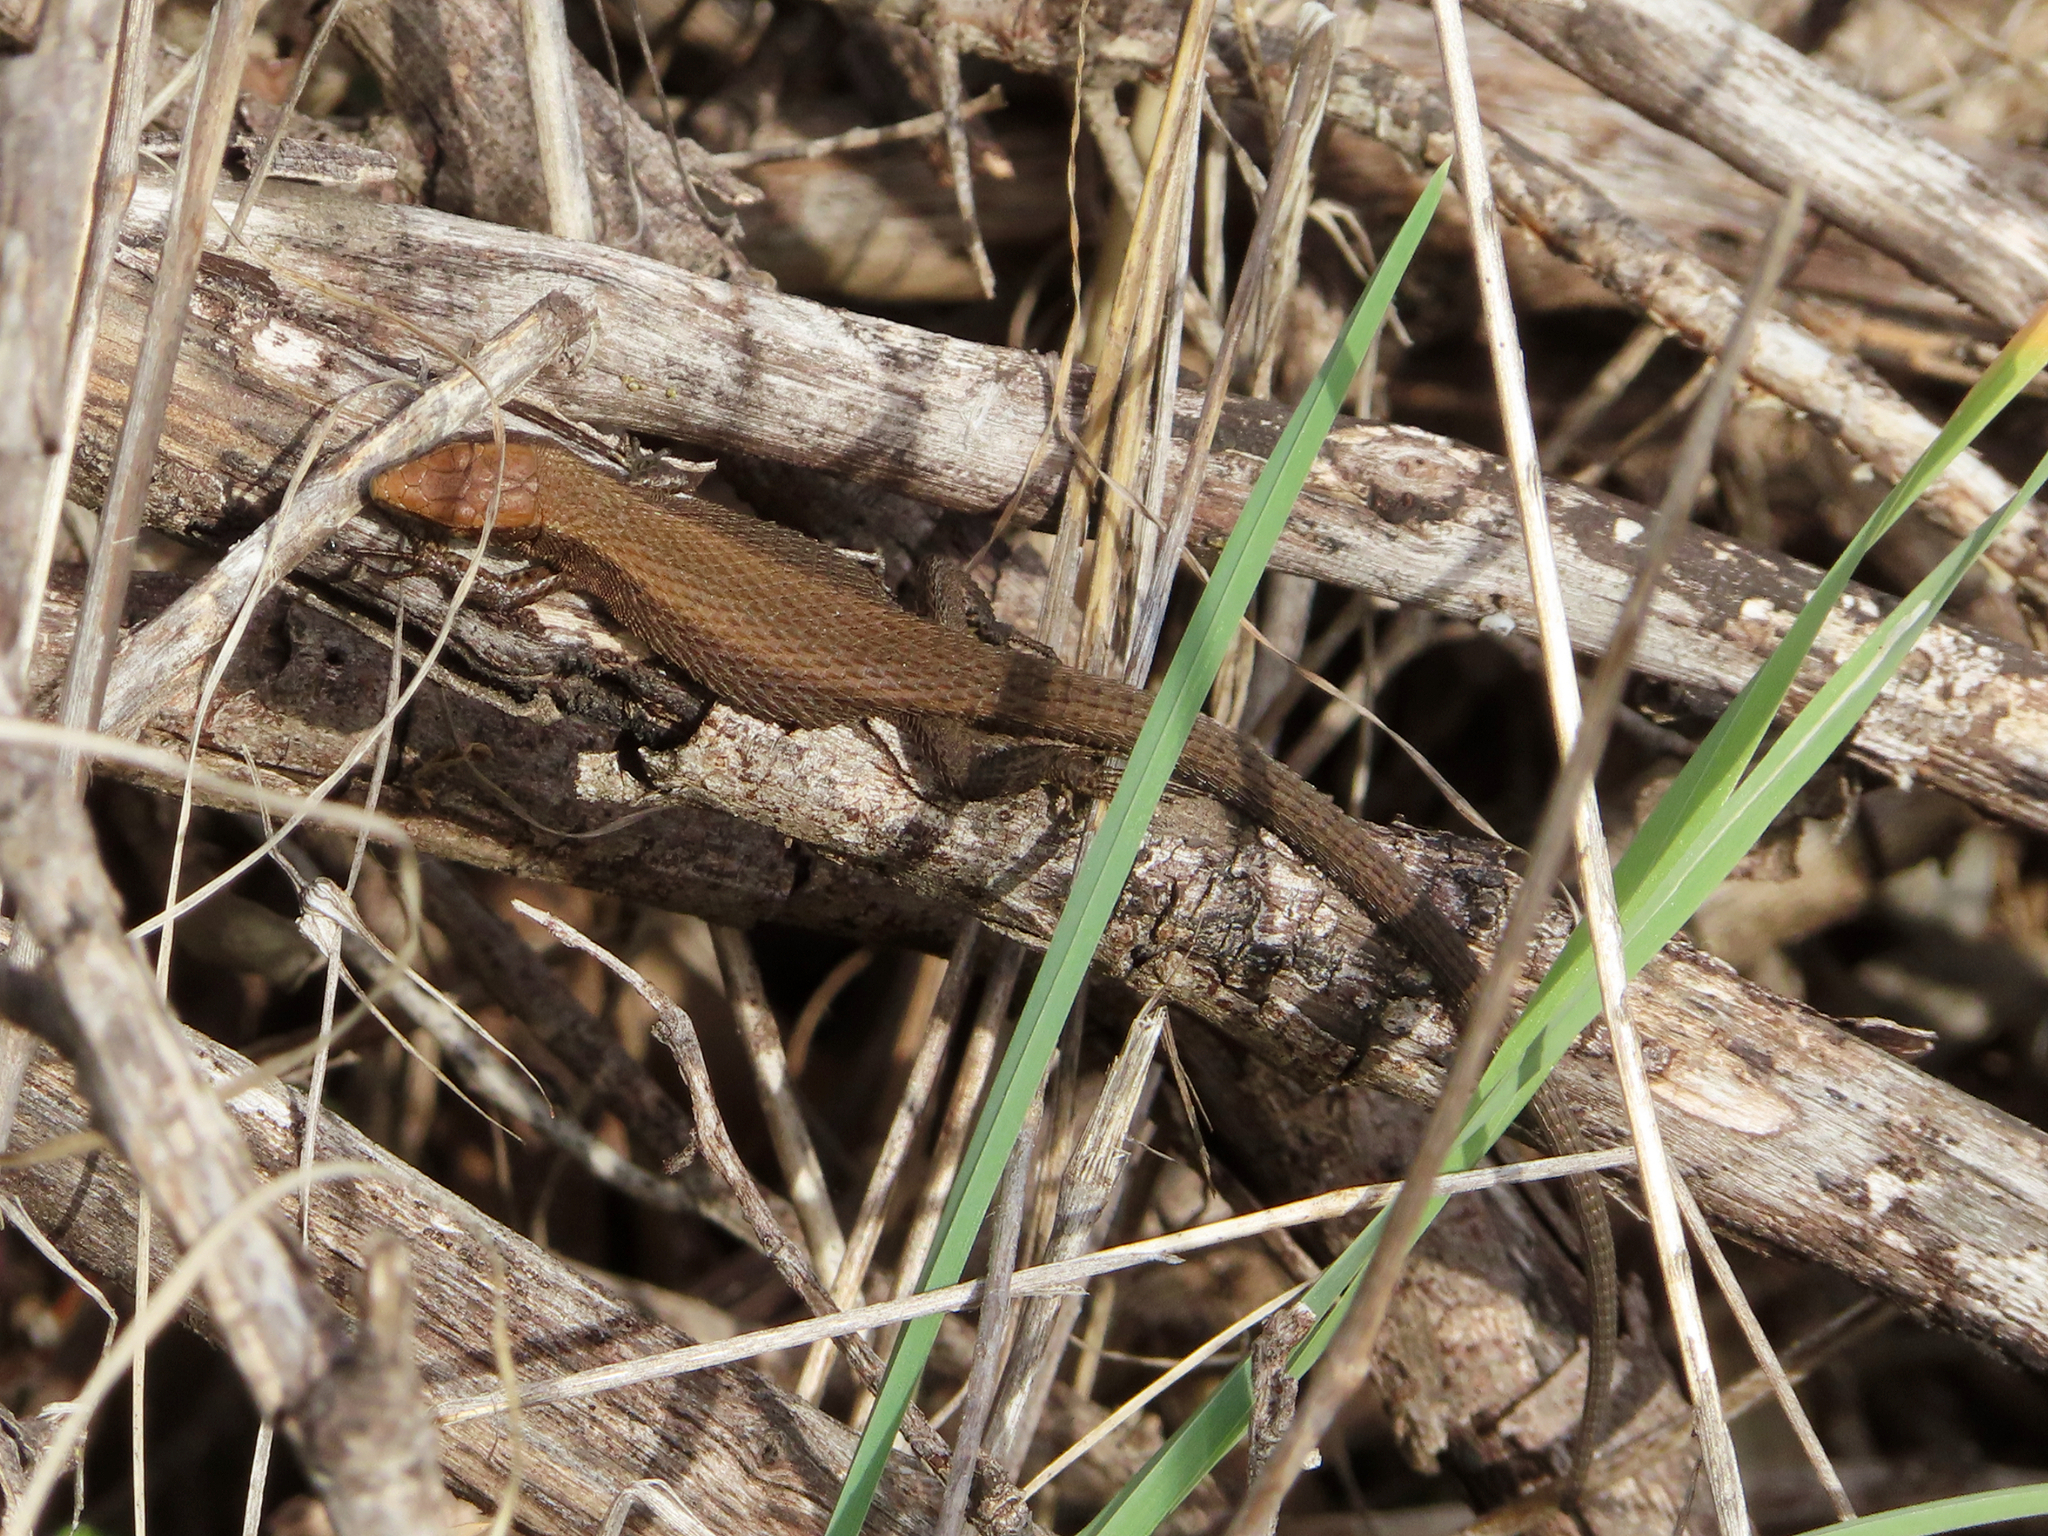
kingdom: Animalia
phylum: Chordata
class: Squamata
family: Lacertidae
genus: Algyroides
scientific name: Algyroides moreoticus
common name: Greek algyroides
